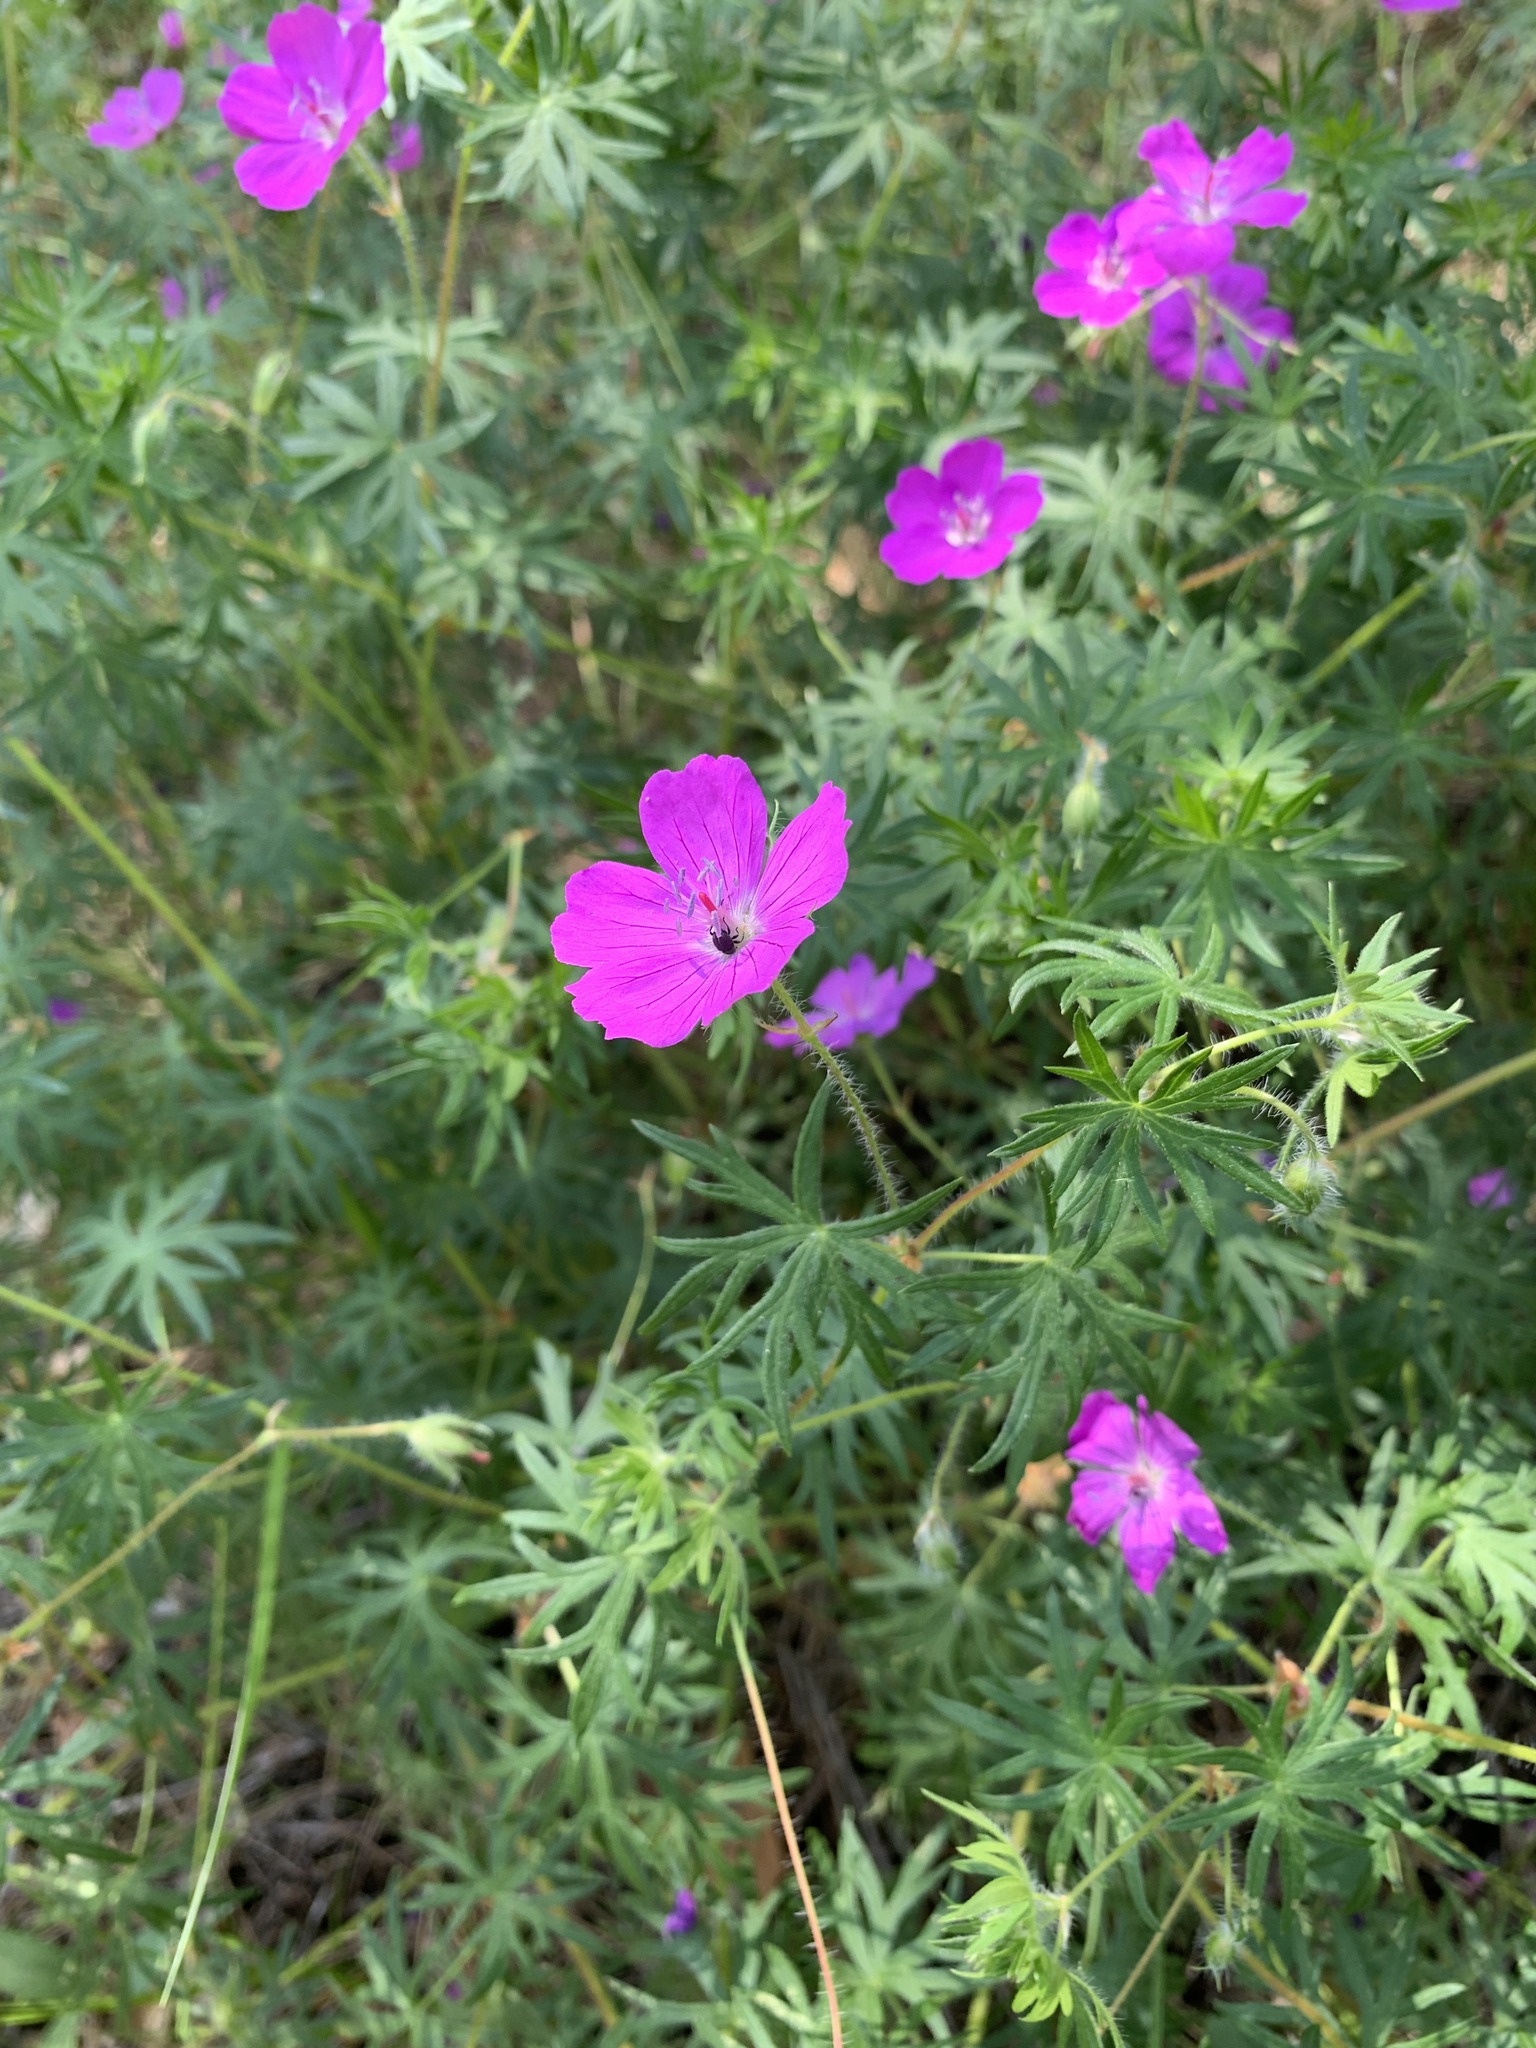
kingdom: Plantae
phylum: Tracheophyta
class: Magnoliopsida
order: Geraniales
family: Geraniaceae
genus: Geranium
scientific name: Geranium sanguineum
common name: Bloody crane's-bill
